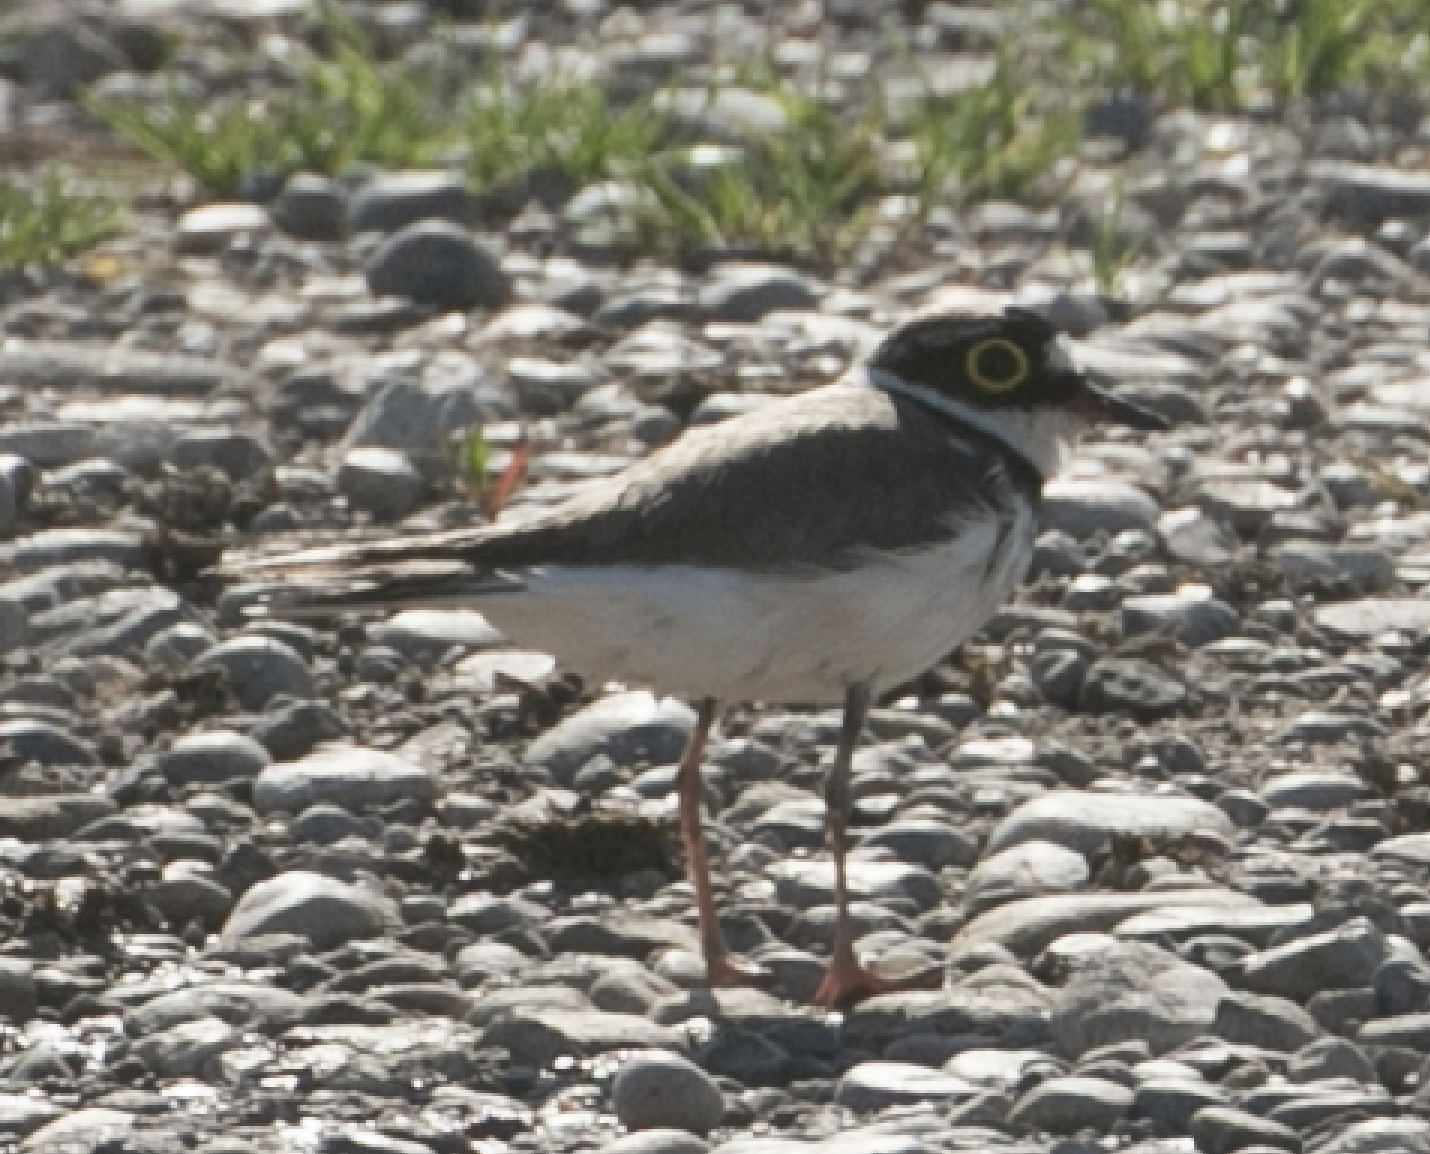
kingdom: Animalia
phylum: Chordata
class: Aves
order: Charadriiformes
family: Charadriidae
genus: Charadrius
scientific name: Charadrius dubius
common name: Little ringed plover
